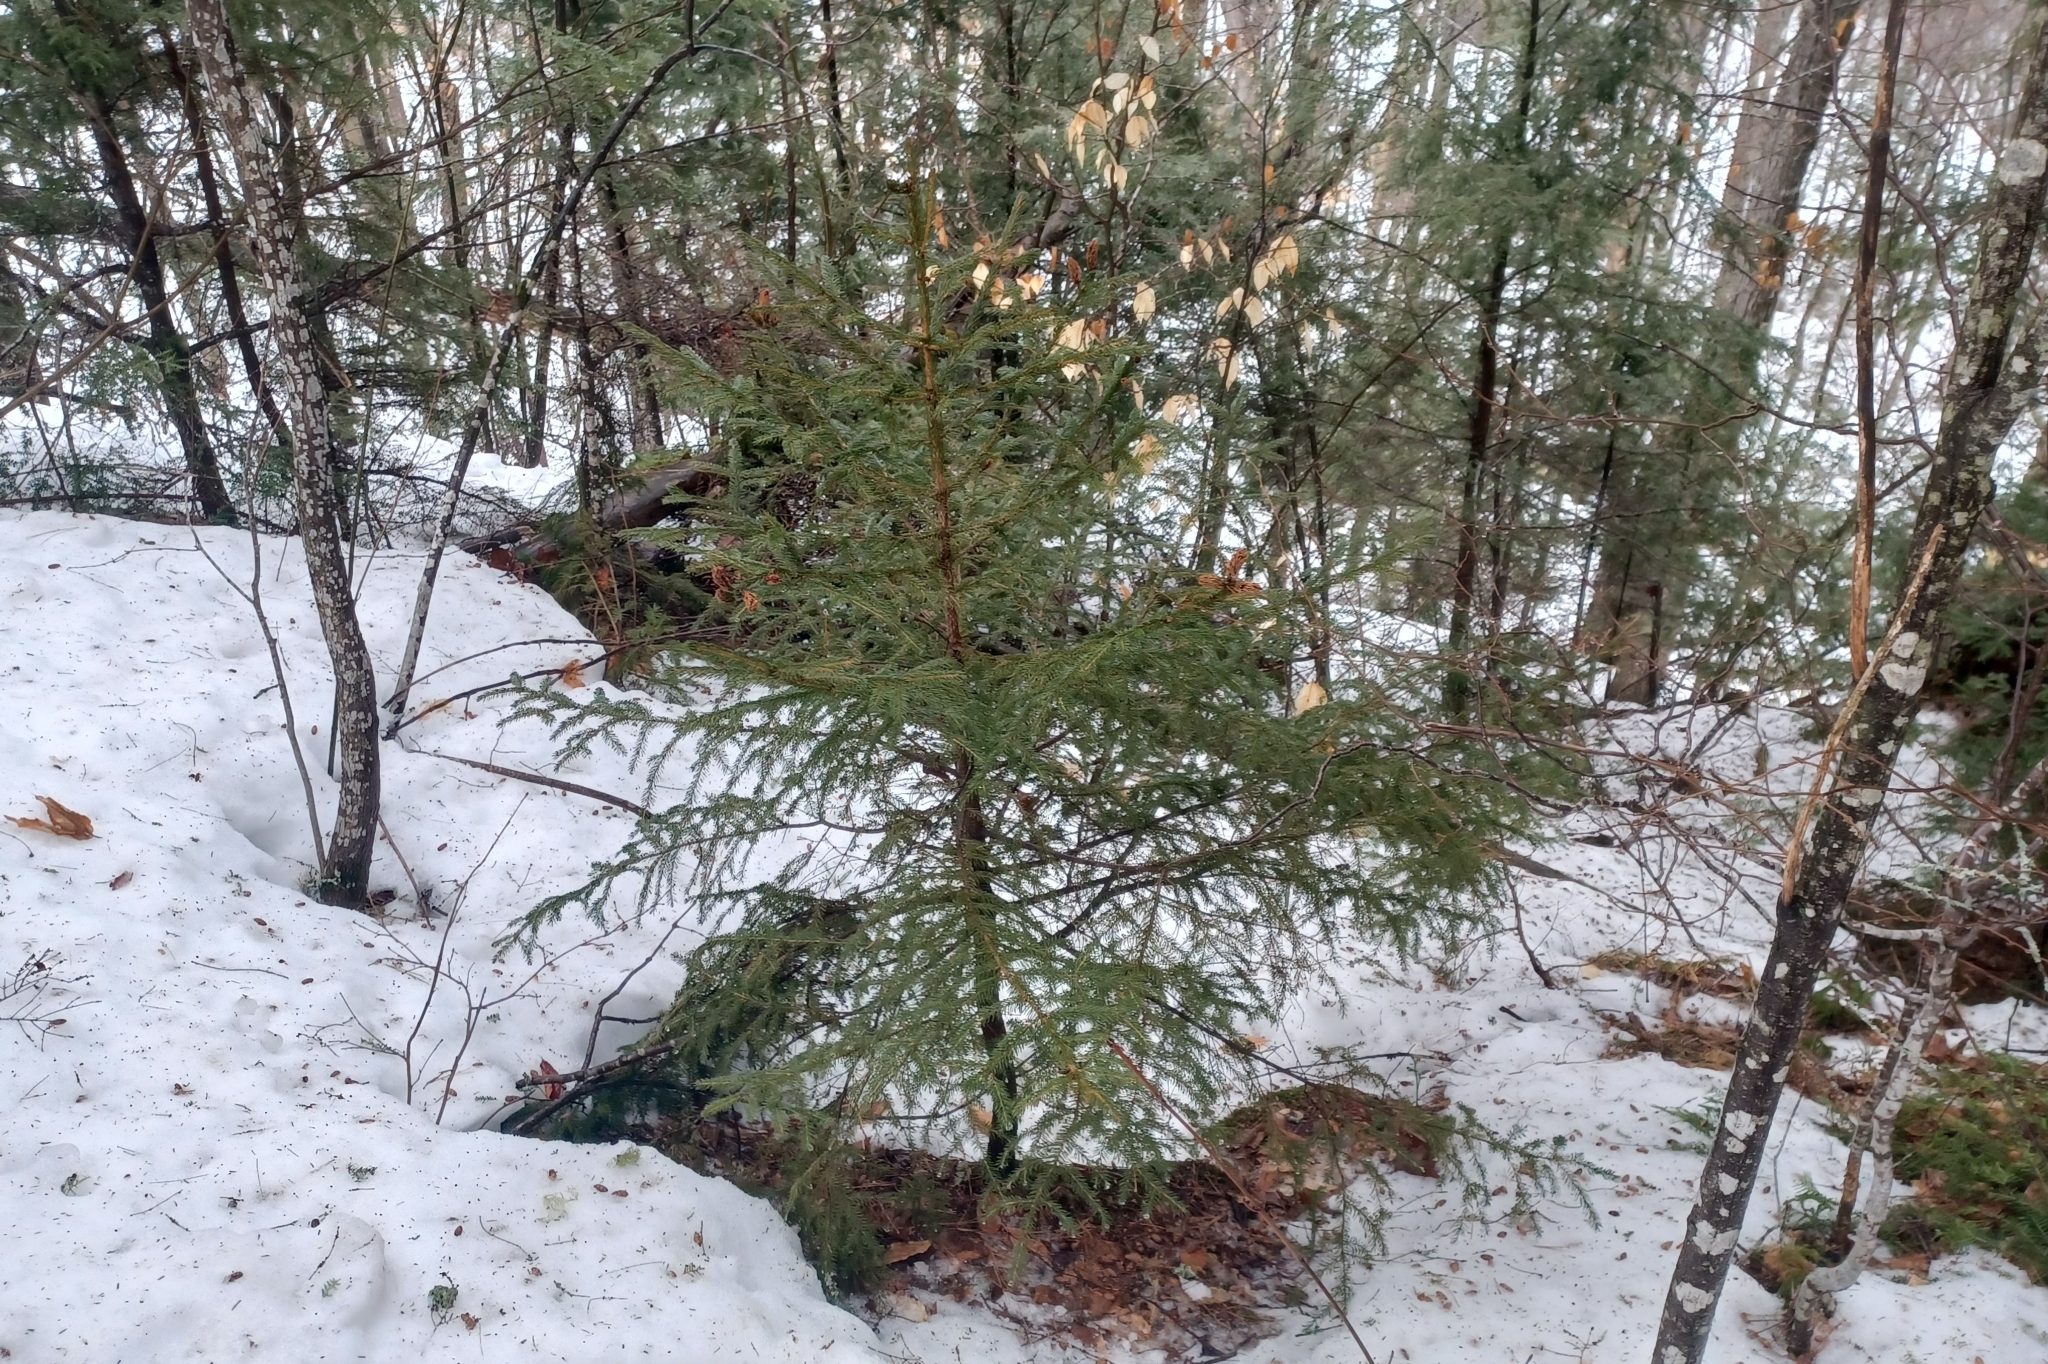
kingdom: Plantae
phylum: Tracheophyta
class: Pinopsida
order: Pinales
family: Pinaceae
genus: Picea
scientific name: Picea rubens
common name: Red spruce
